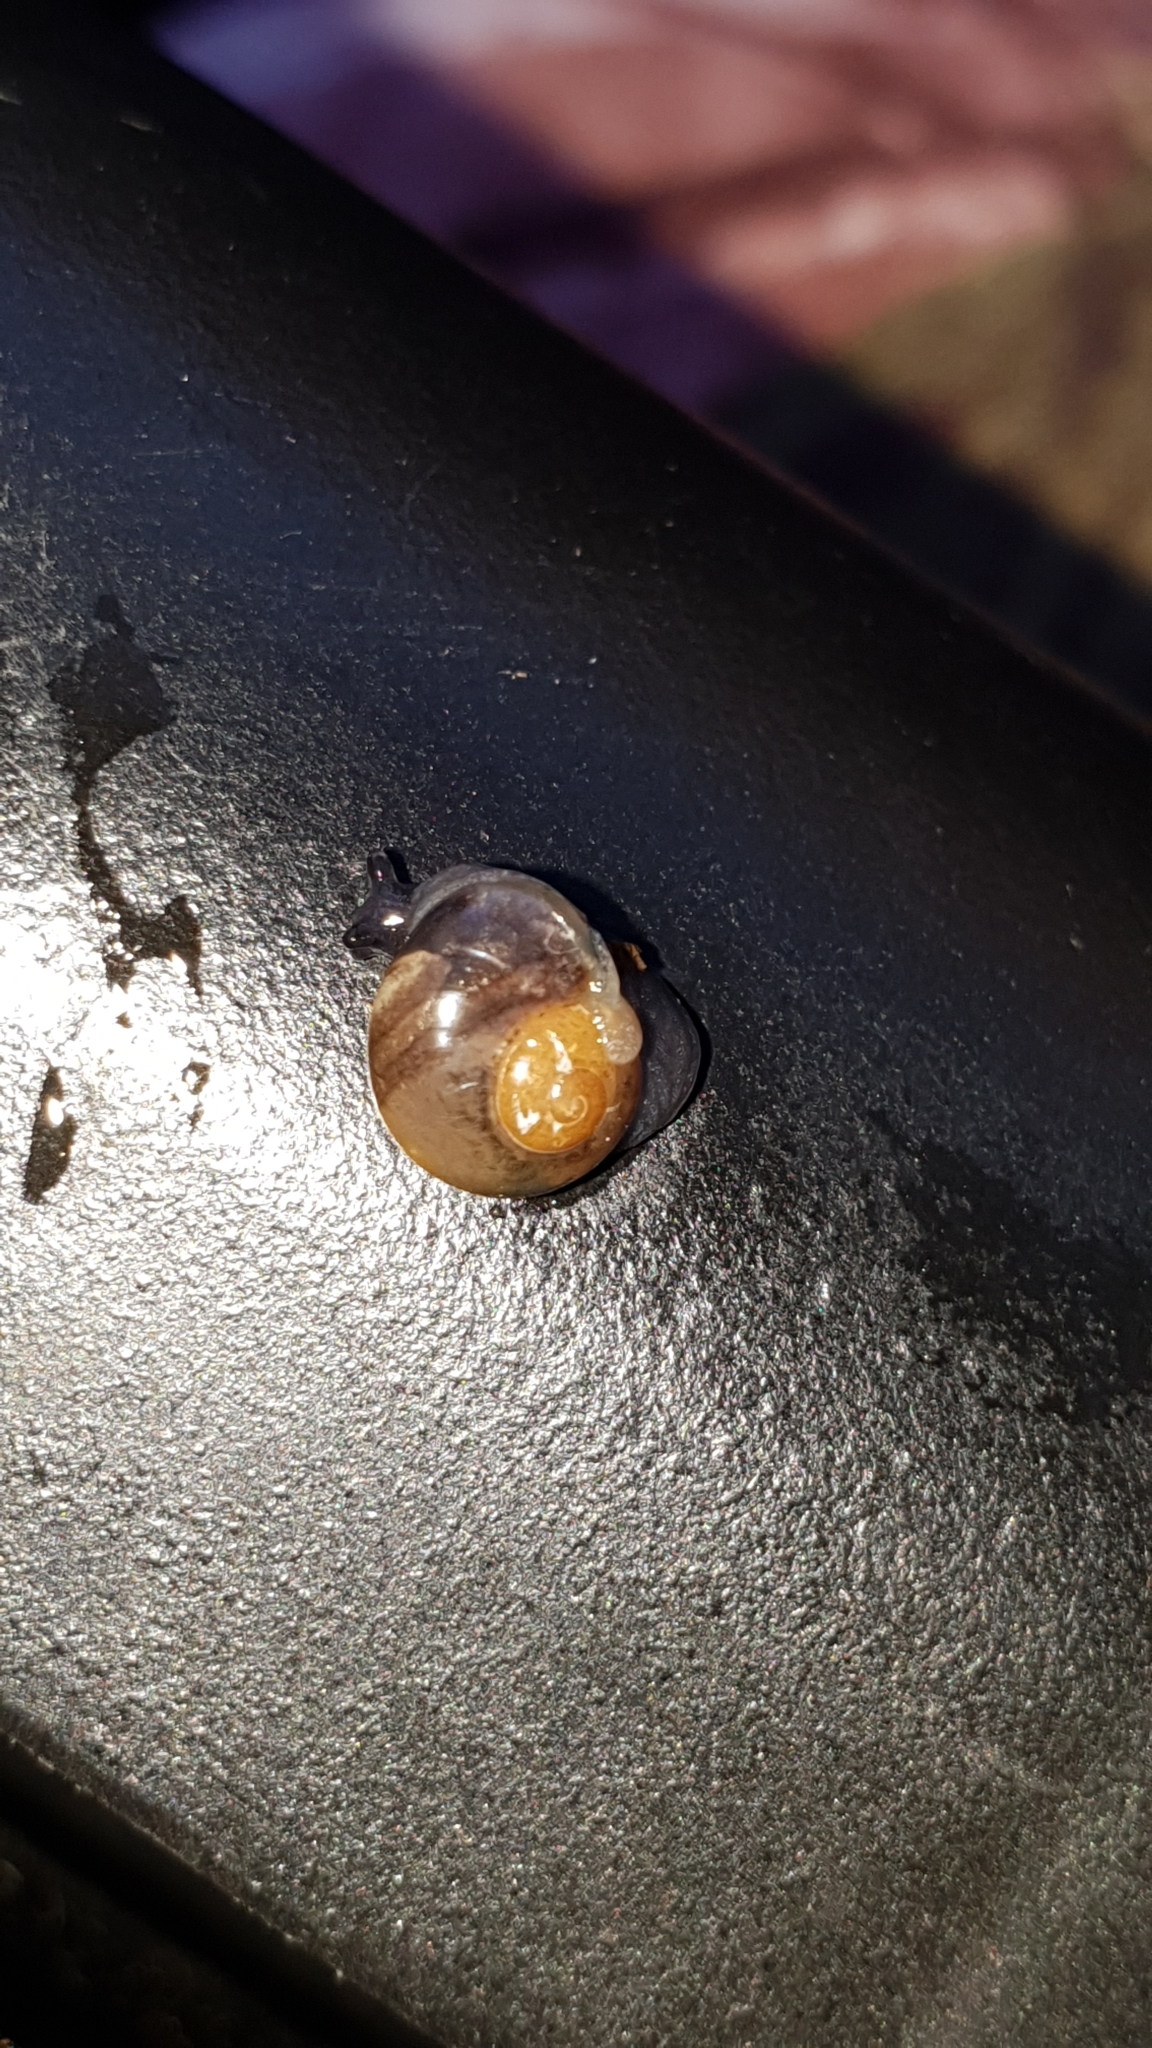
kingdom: Animalia
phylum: Mollusca
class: Gastropoda
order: Stylommatophora
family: Vitrinidae
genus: Vitrina
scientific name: Vitrina pellucida
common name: Pellucid glass snail
